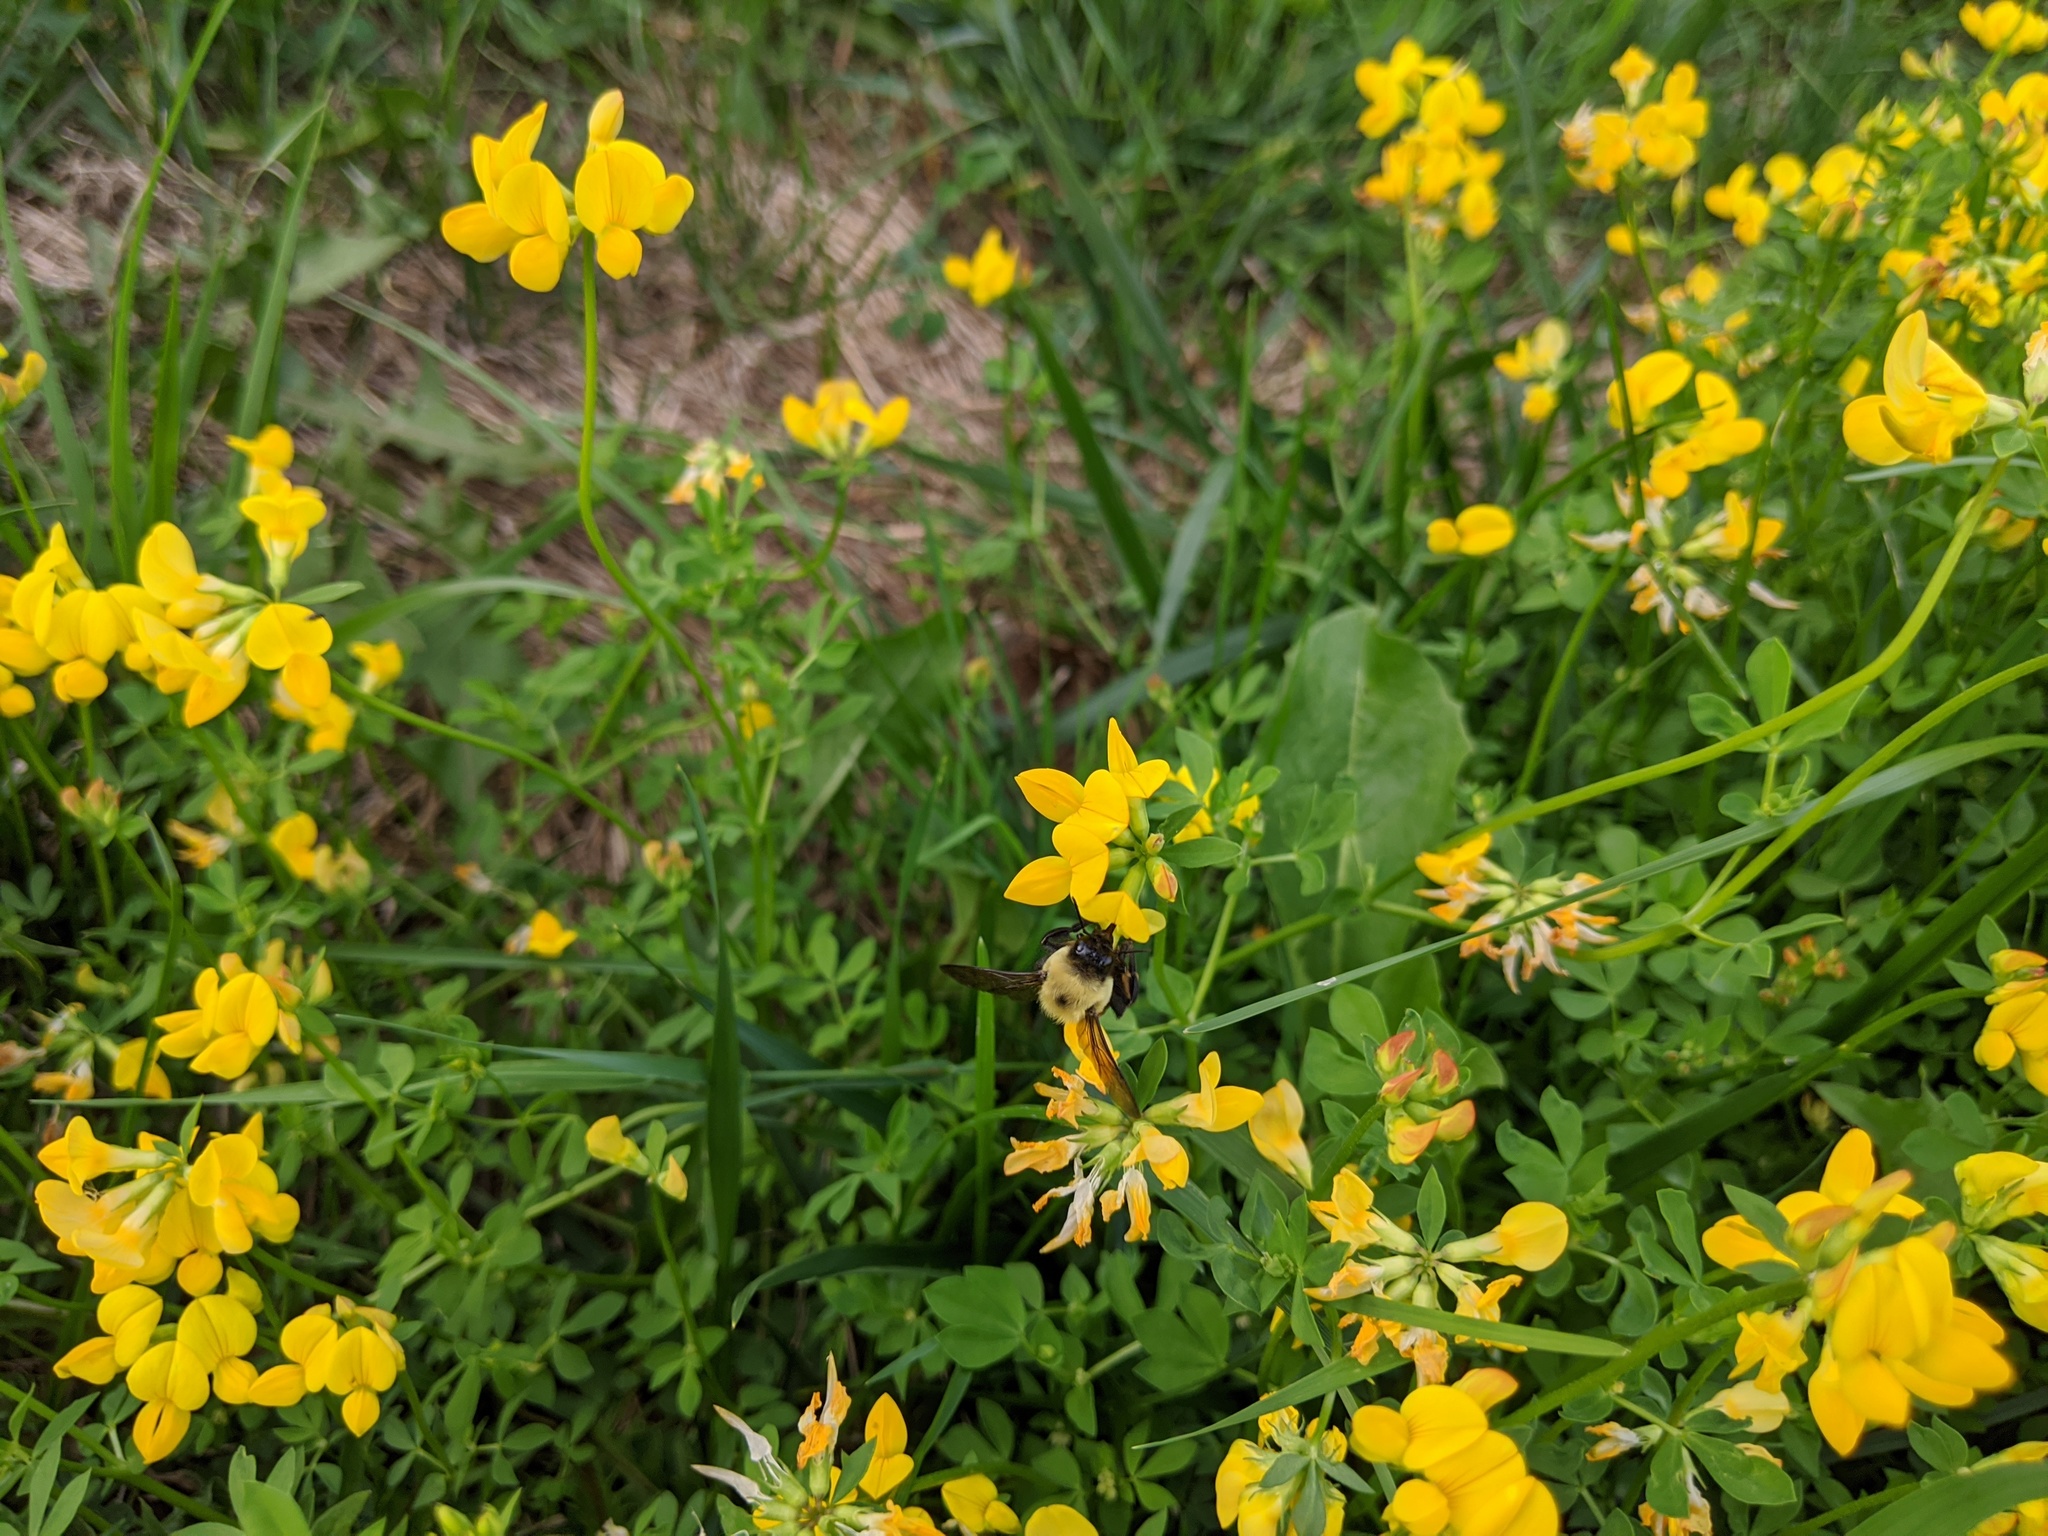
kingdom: Plantae
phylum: Tracheophyta
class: Magnoliopsida
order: Fabales
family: Fabaceae
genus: Lotus
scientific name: Lotus corniculatus
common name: Common bird's-foot-trefoil
